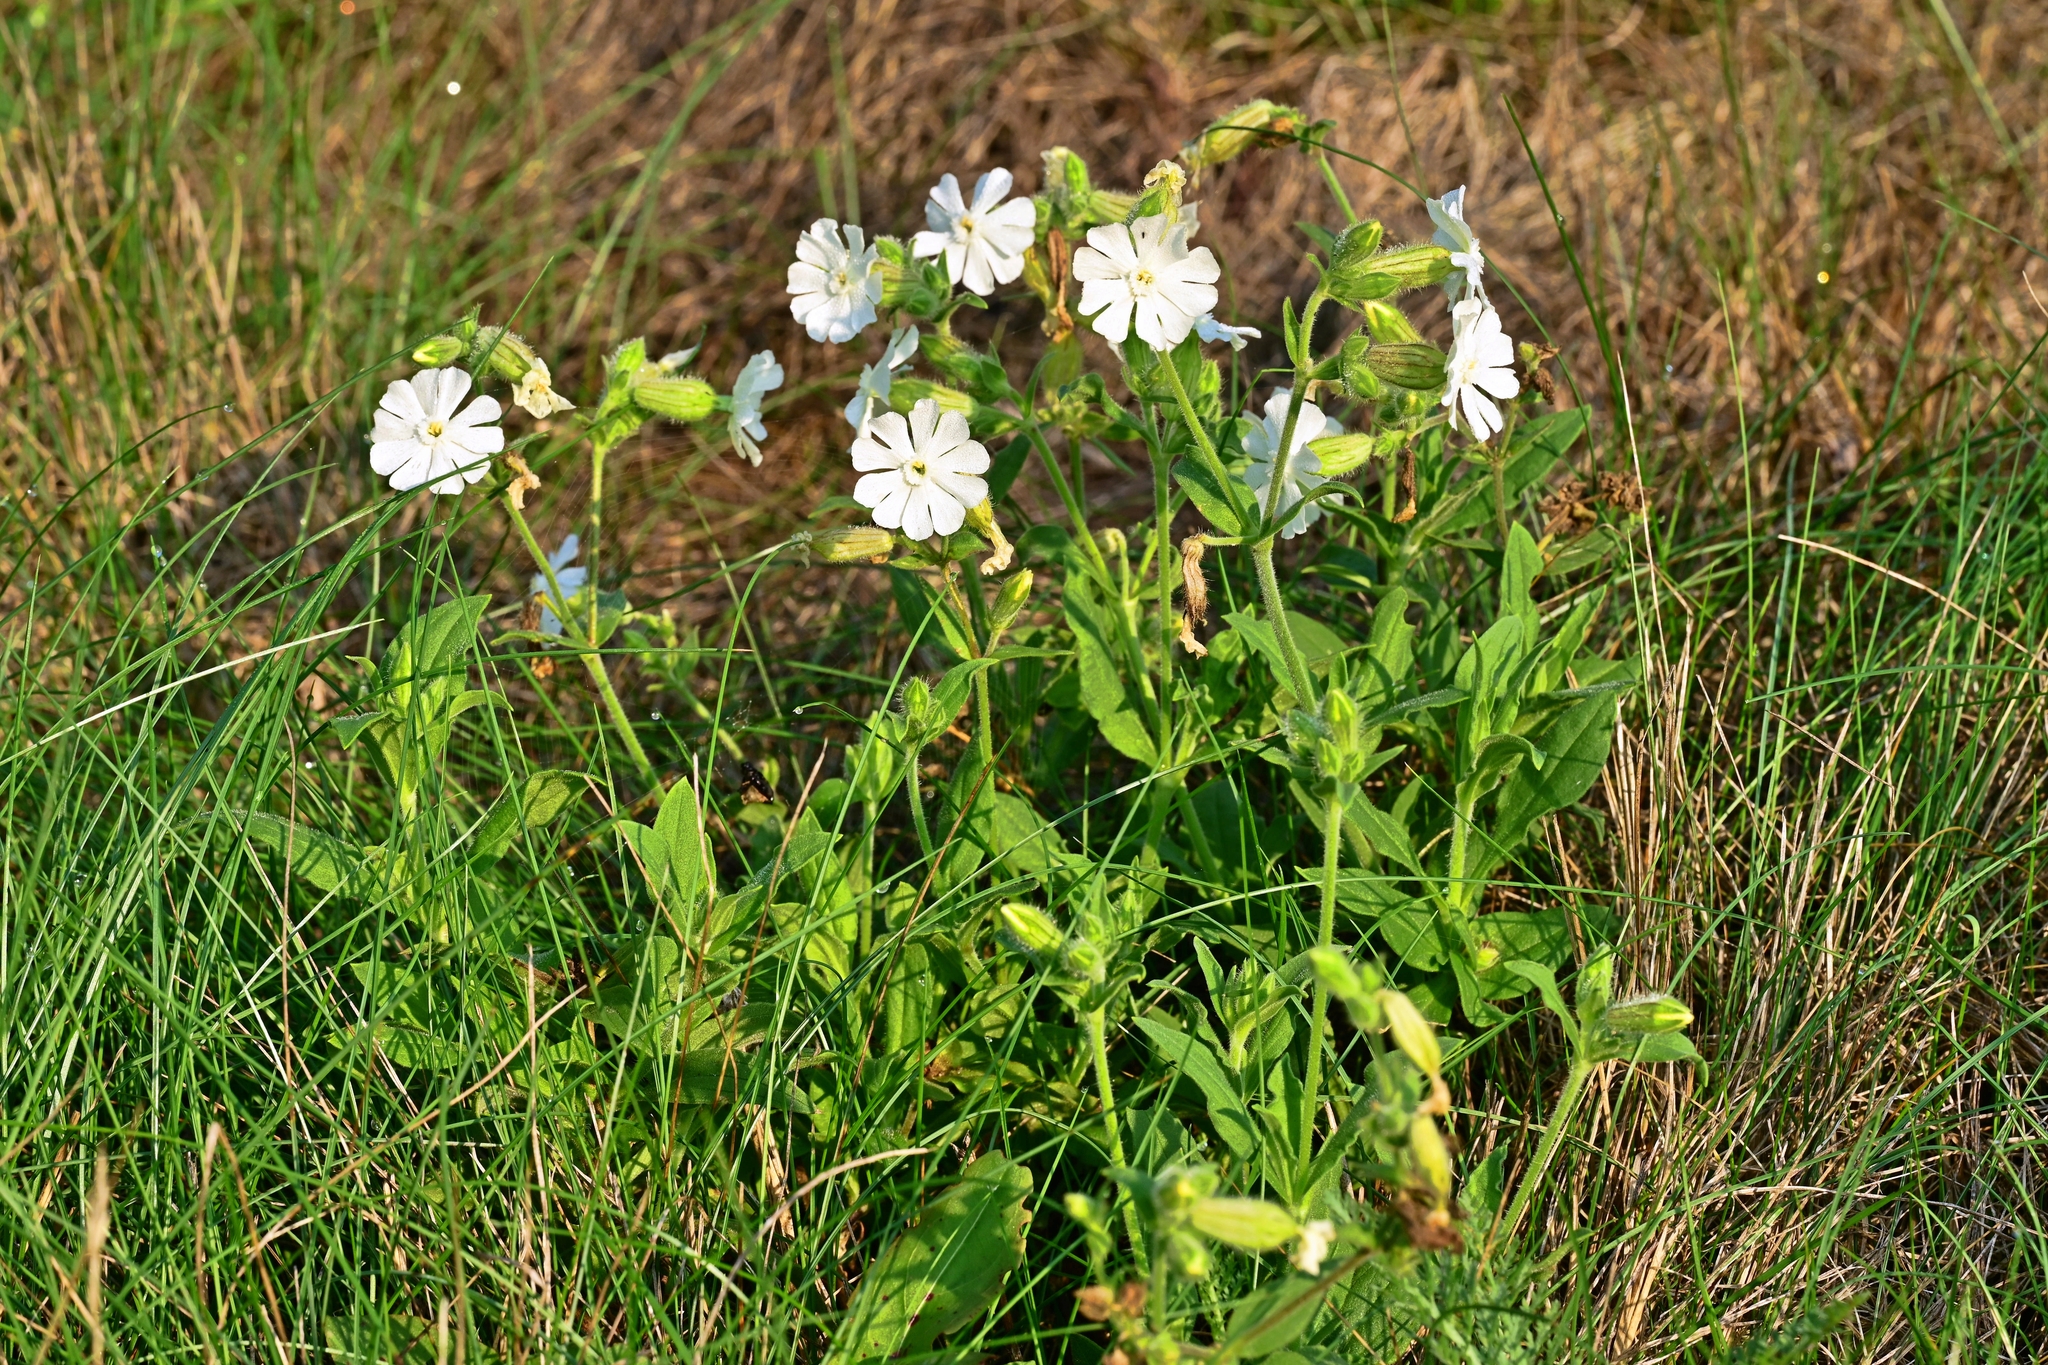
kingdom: Plantae
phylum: Tracheophyta
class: Magnoliopsida
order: Caryophyllales
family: Caryophyllaceae
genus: Silene
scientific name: Silene latifolia
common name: White campion
